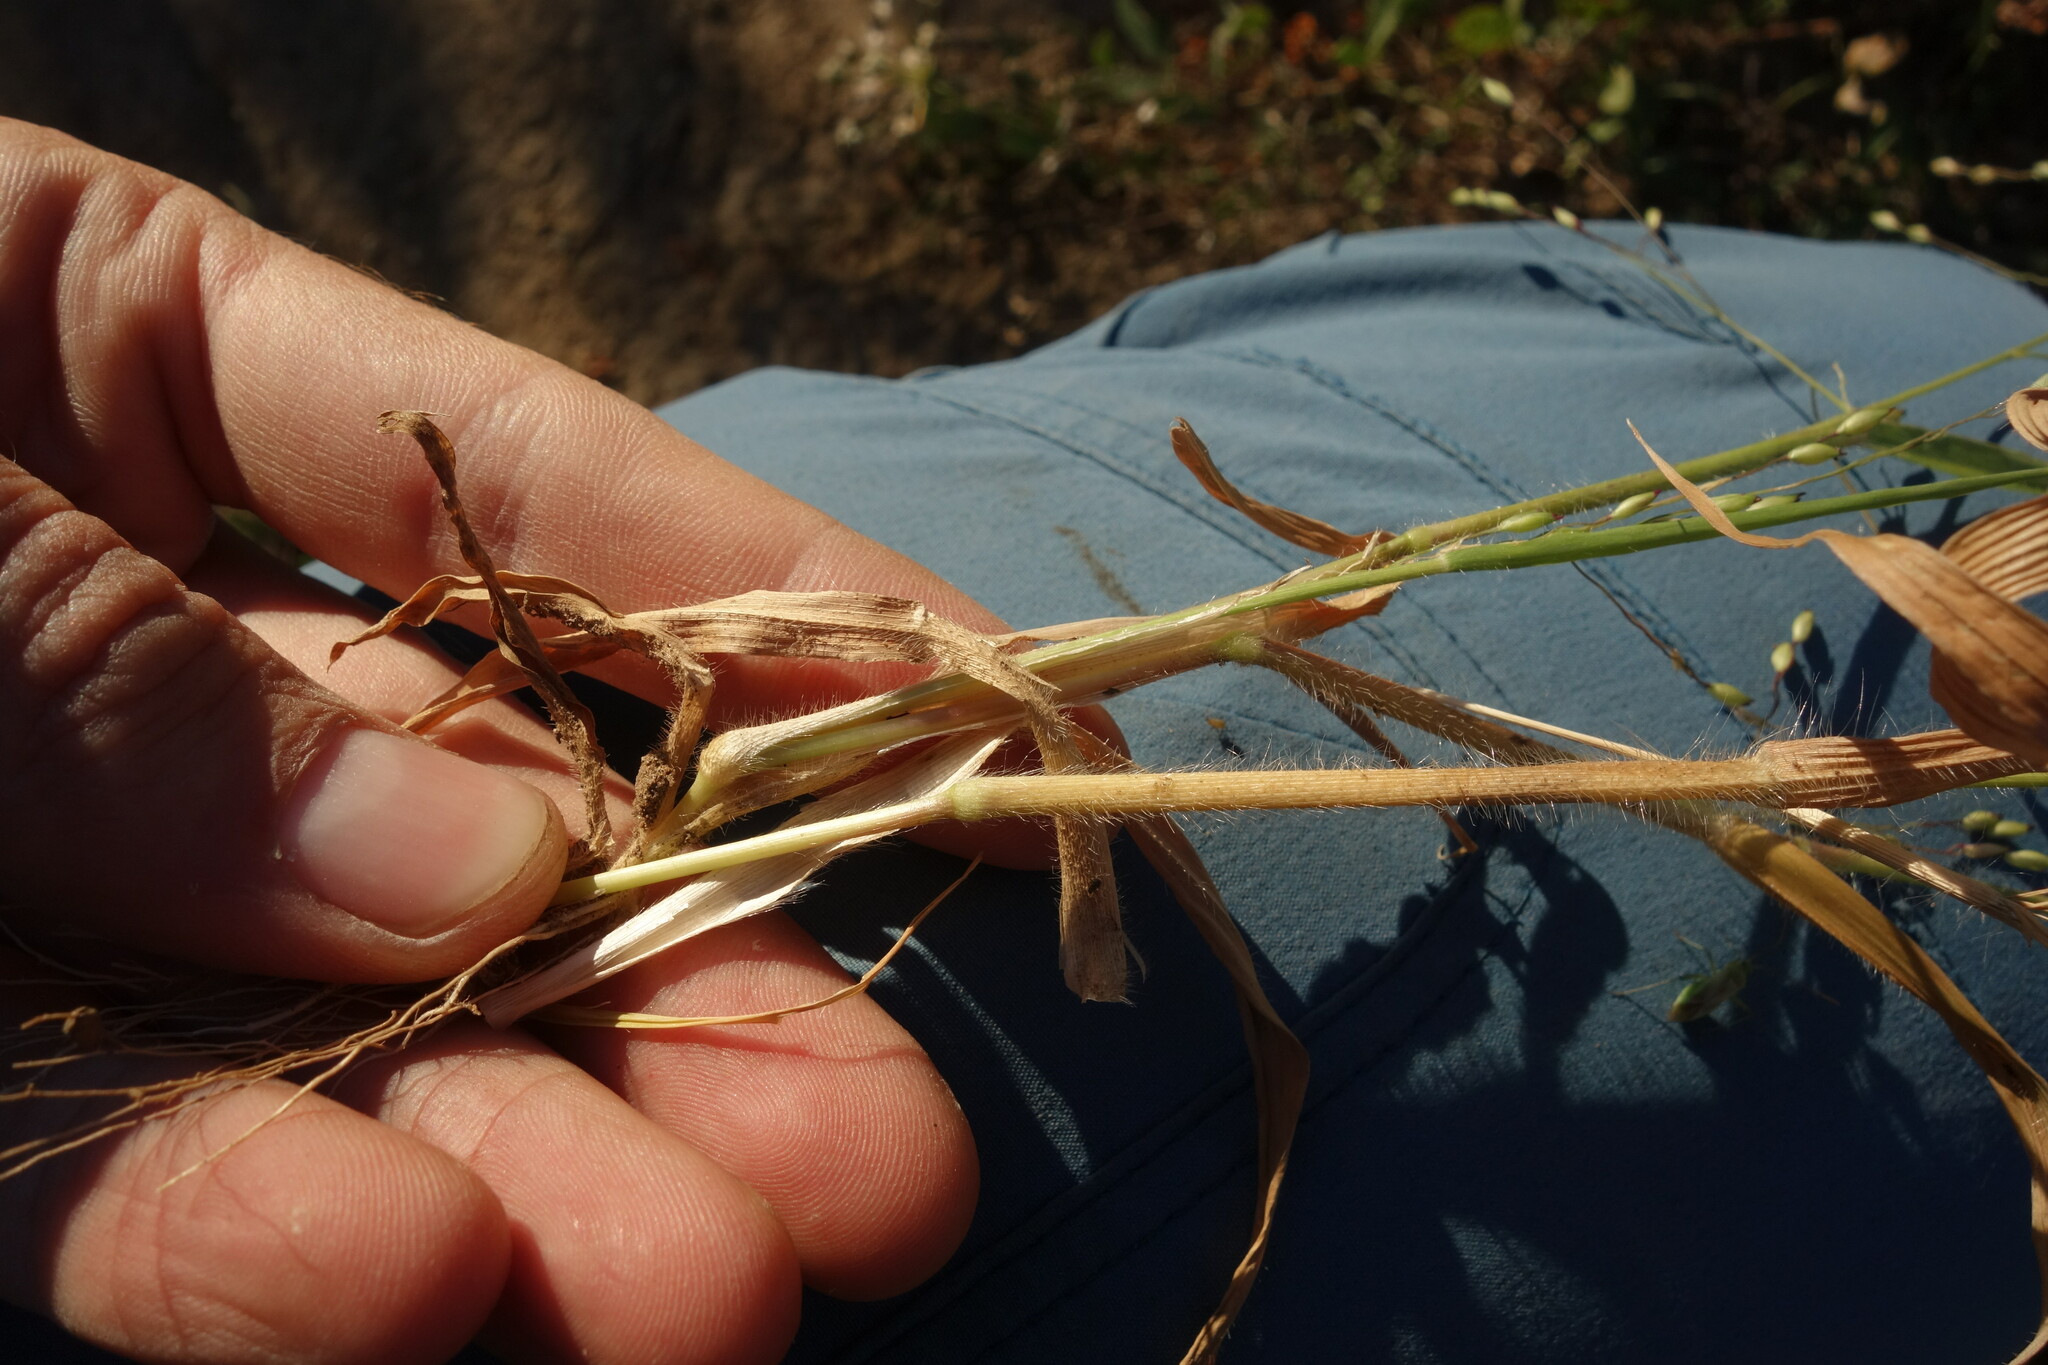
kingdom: Plantae
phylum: Tracheophyta
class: Liliopsida
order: Poales
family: Poaceae
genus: Panicum
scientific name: Panicum miliaceum
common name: Common millet
